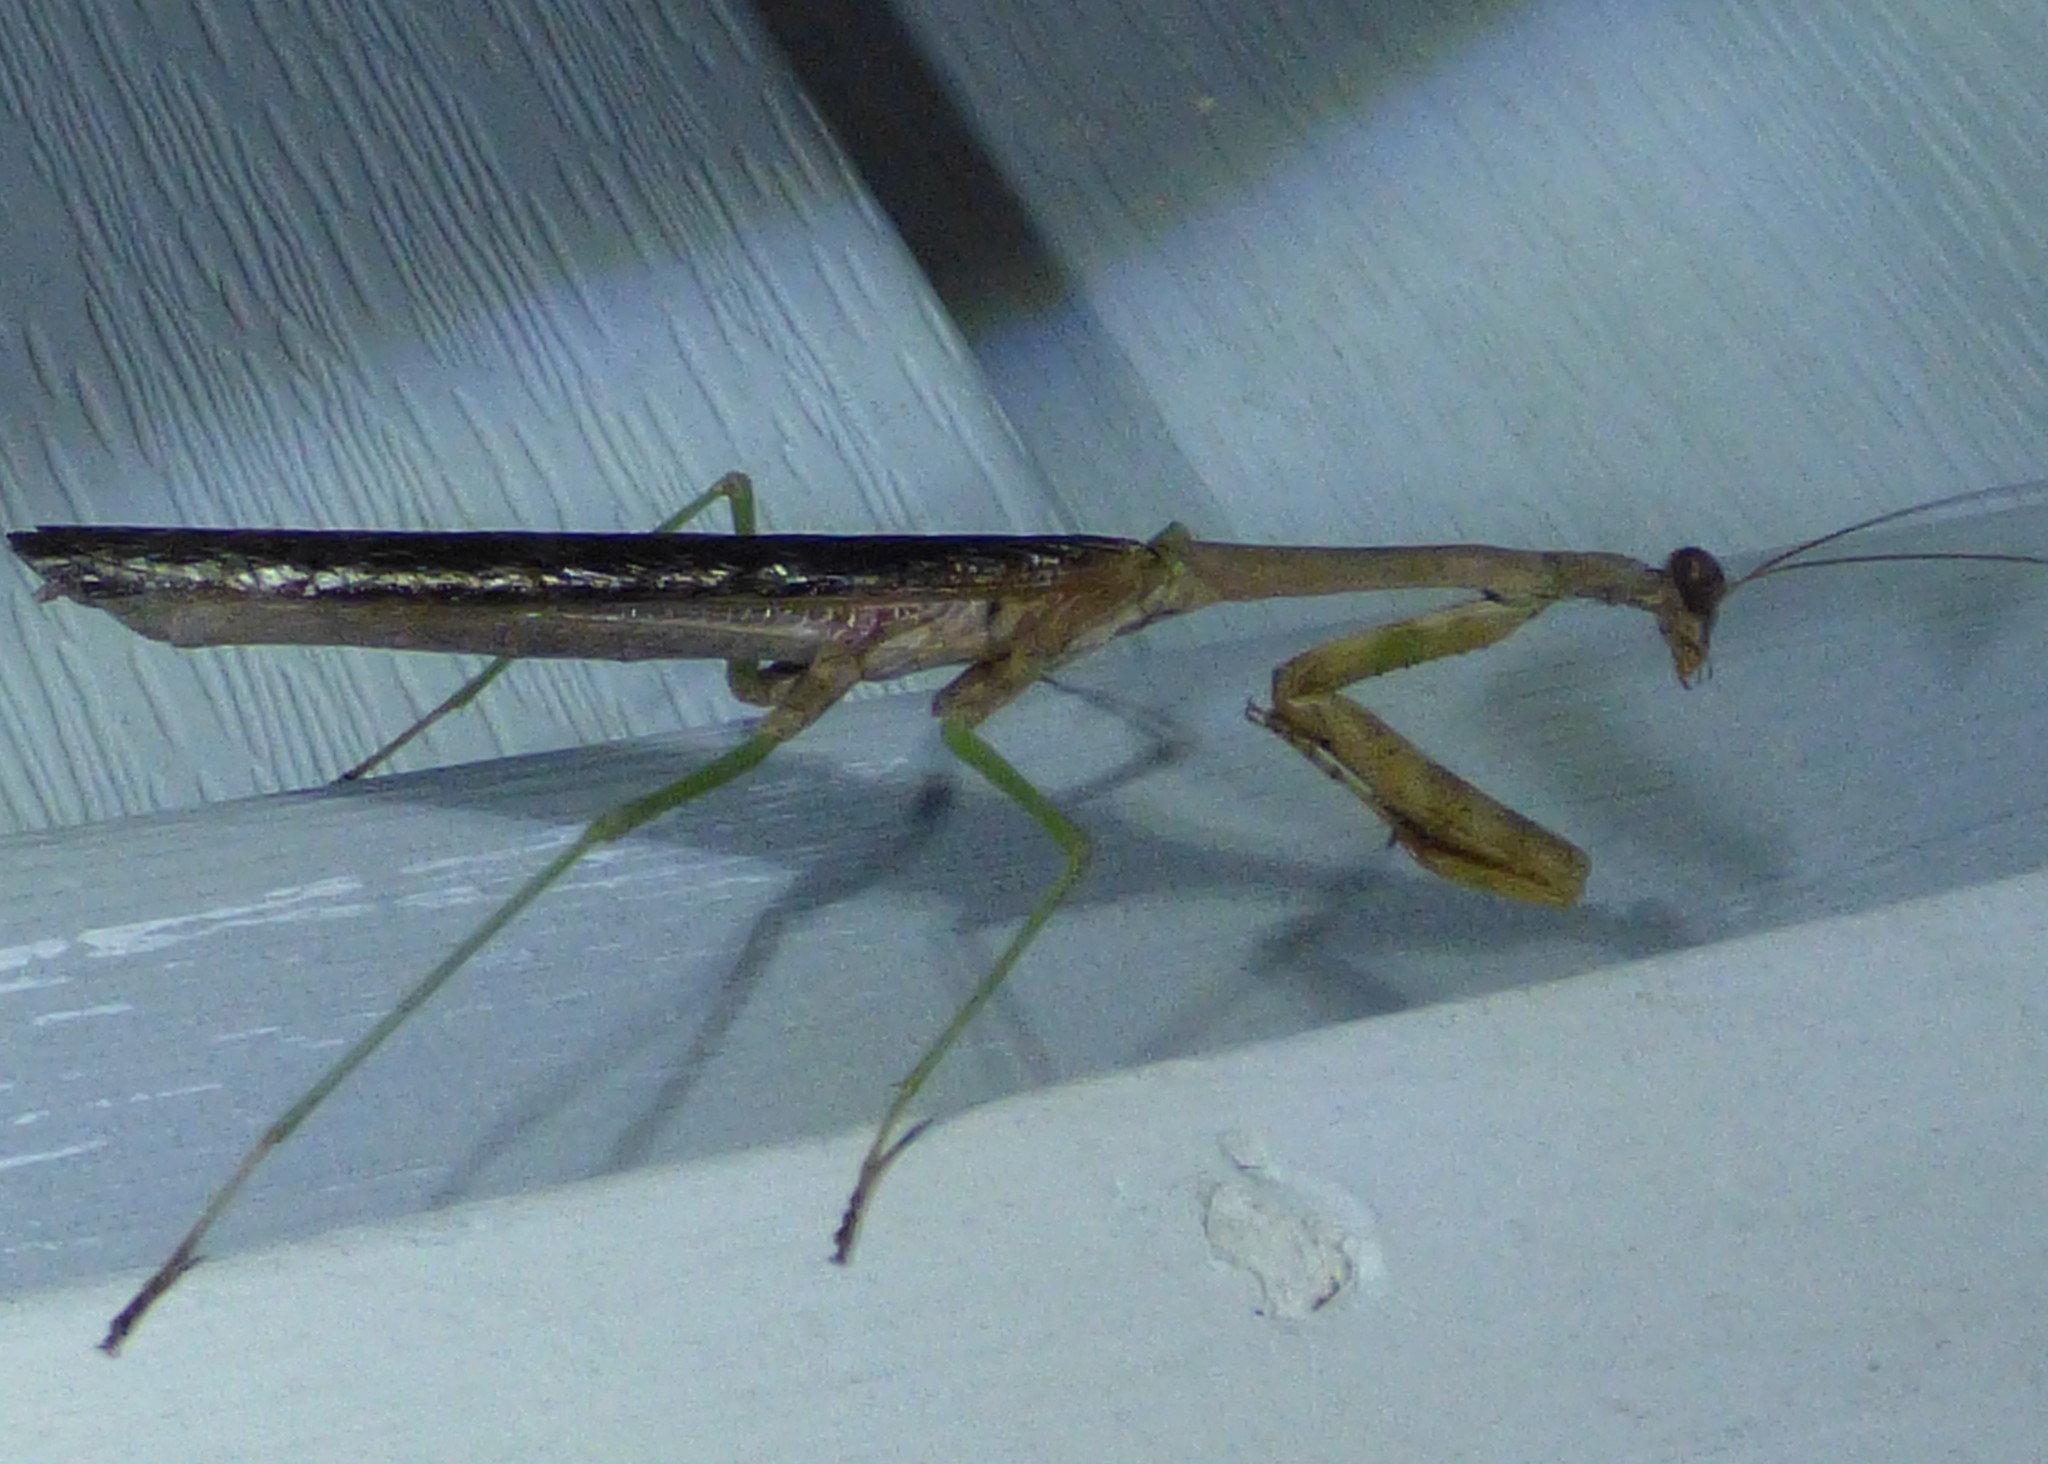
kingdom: Animalia
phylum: Arthropoda
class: Insecta
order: Mantodea
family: Mantidae
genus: Stagmomantis
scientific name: Stagmomantis carolina
